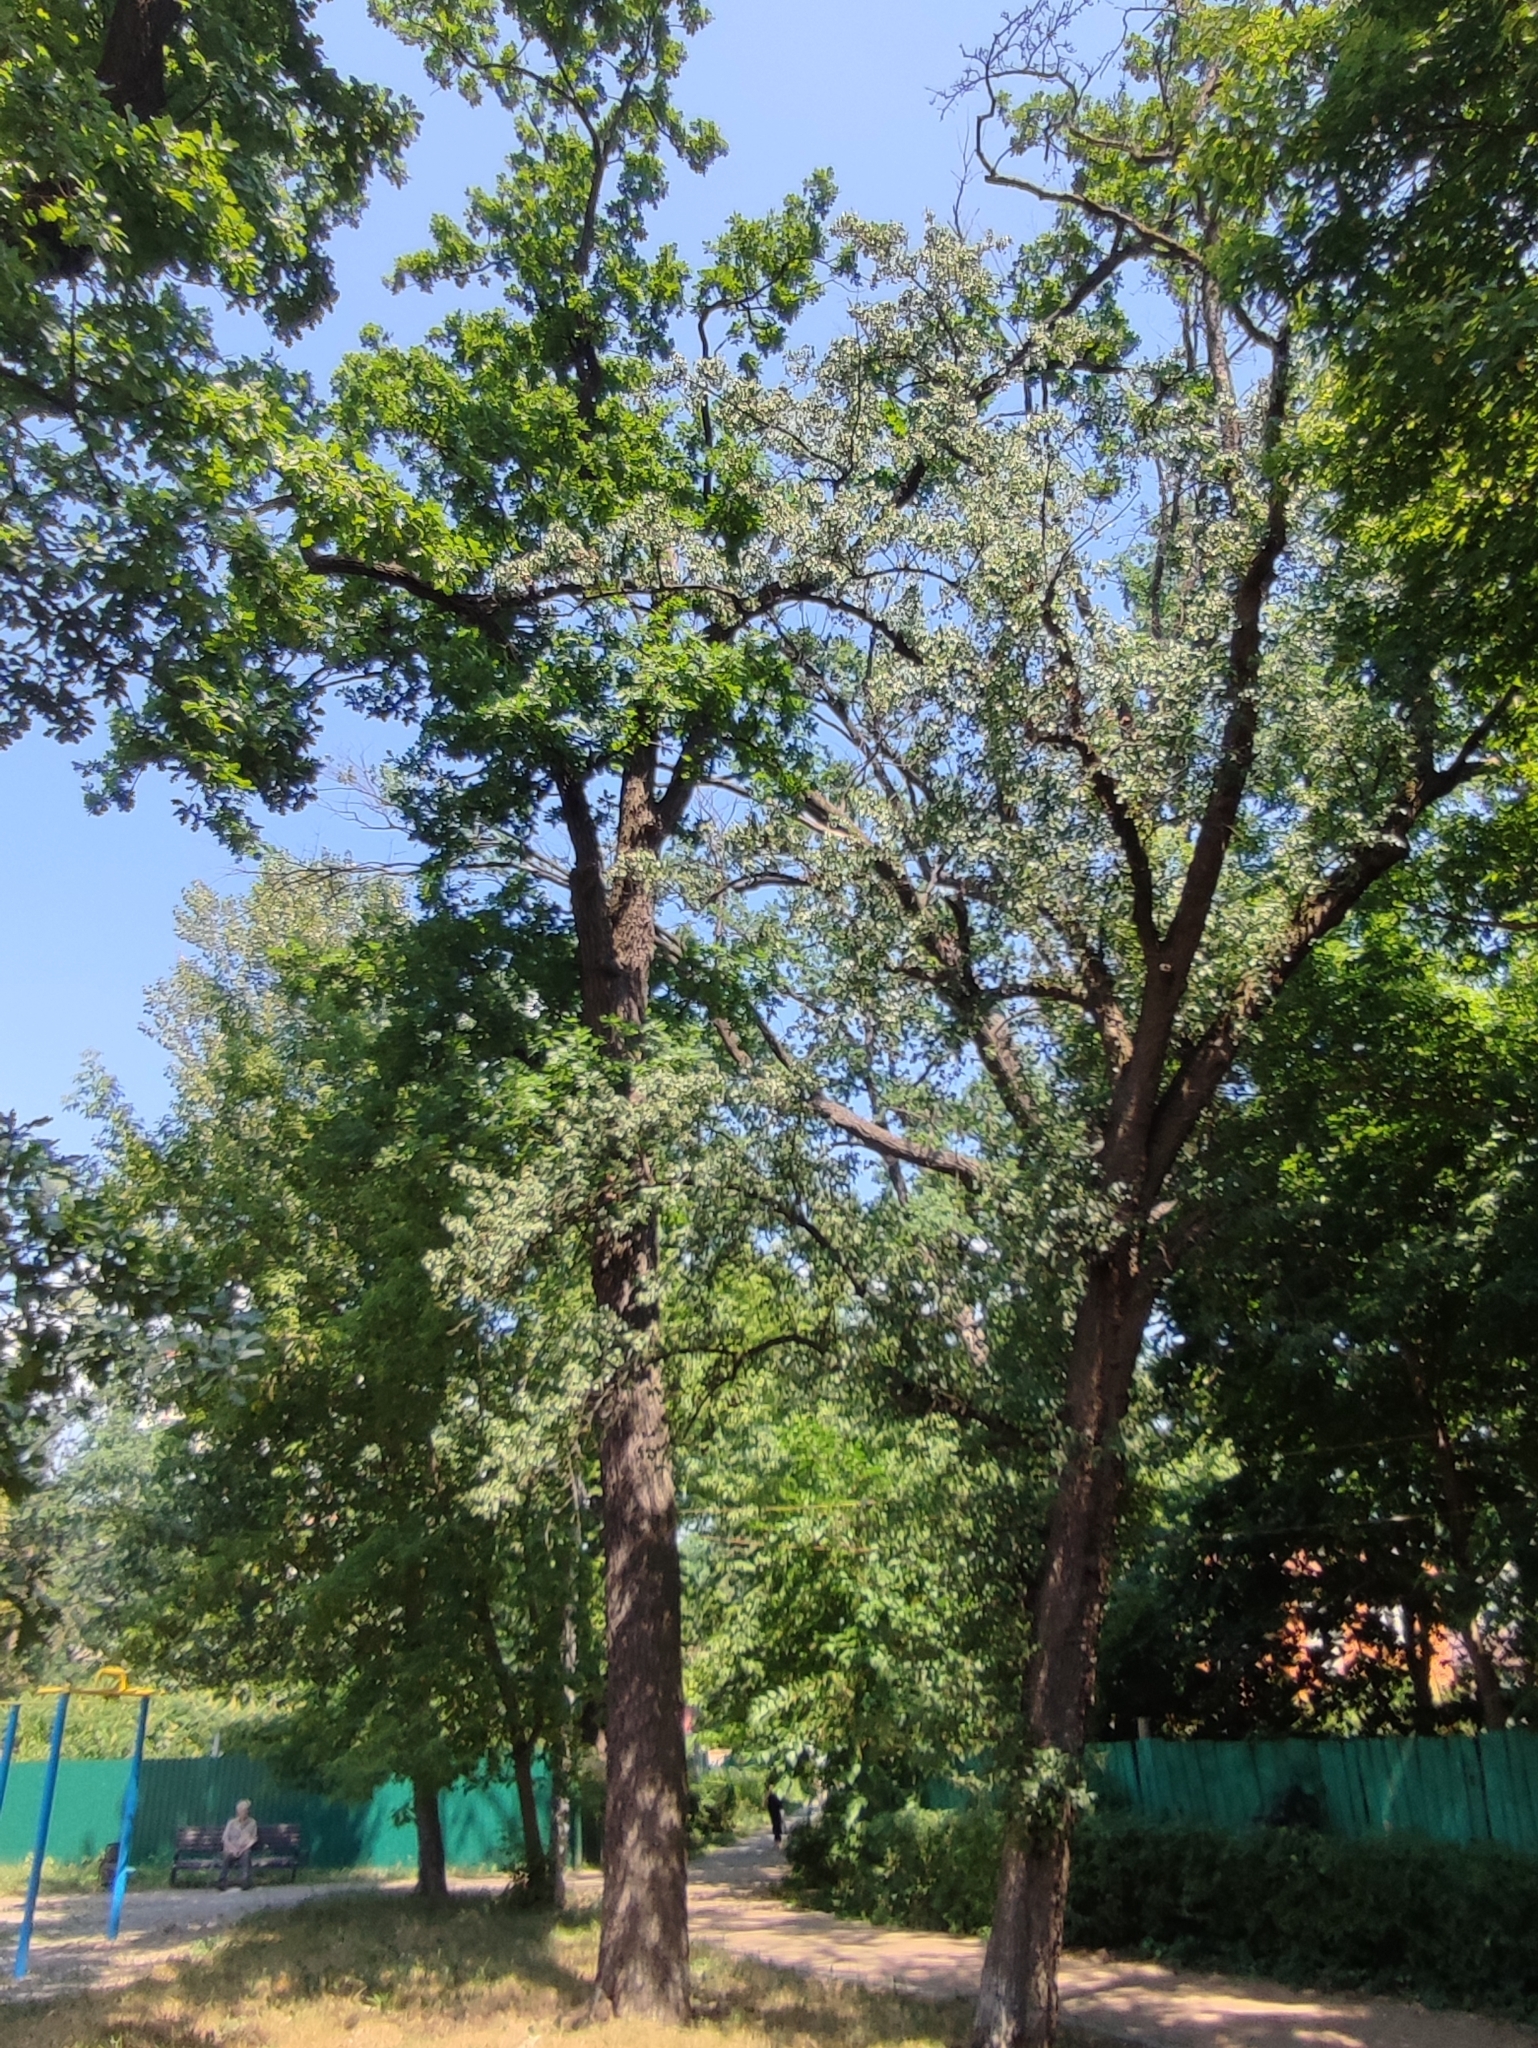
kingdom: Plantae
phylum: Tracheophyta
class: Magnoliopsida
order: Fagales
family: Fagaceae
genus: Quercus
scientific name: Quercus robur
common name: Pedunculate oak
